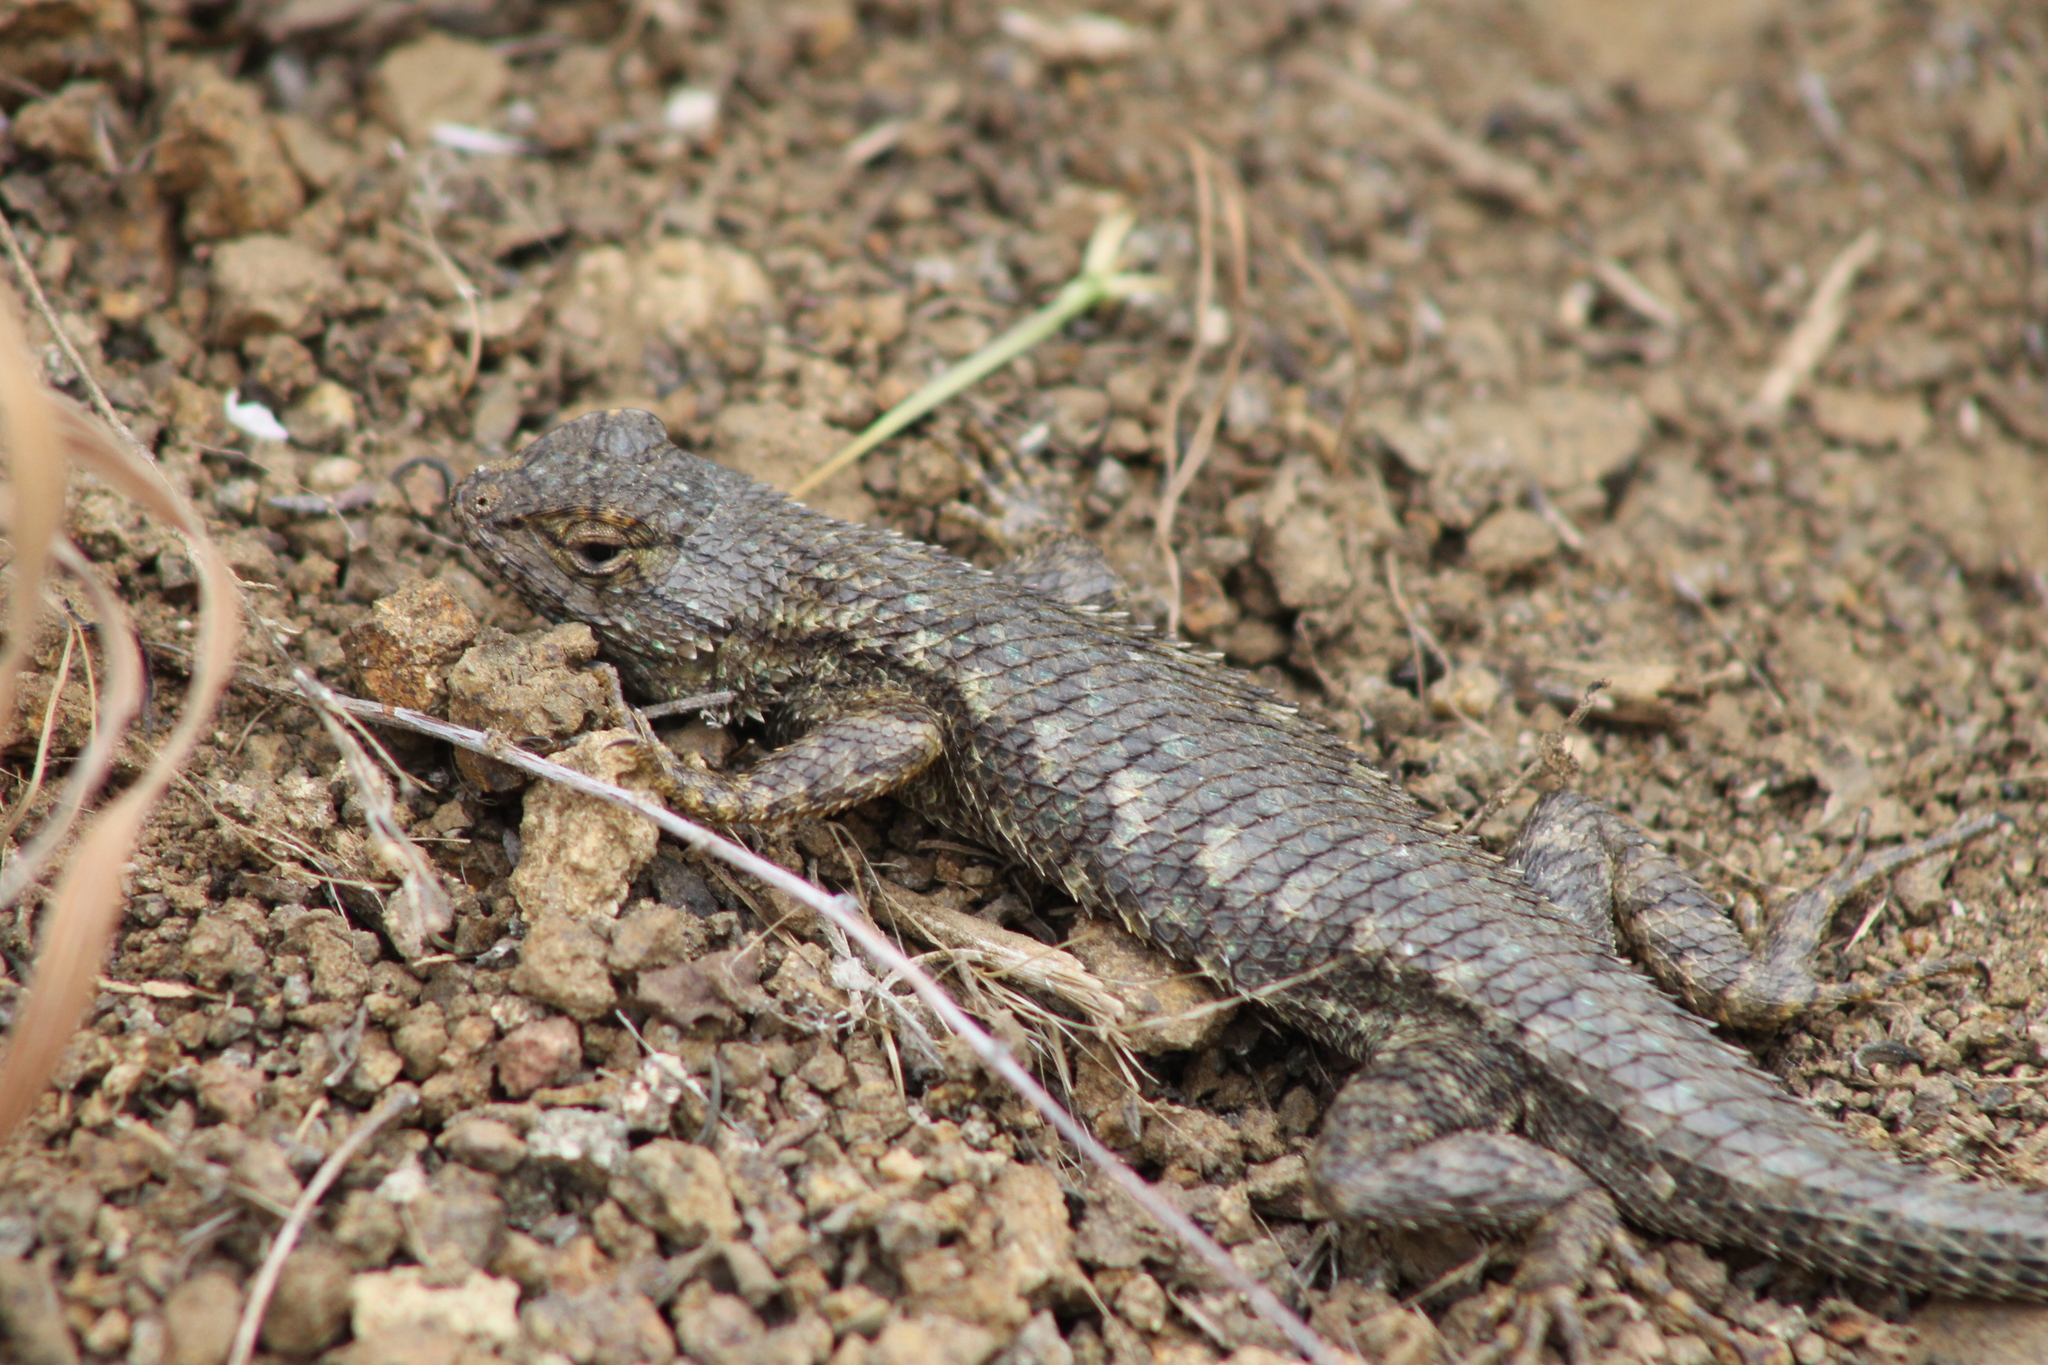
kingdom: Animalia
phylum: Chordata
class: Squamata
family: Phrynosomatidae
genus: Sceloporus
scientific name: Sceloporus occidentalis
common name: Western fence lizard
